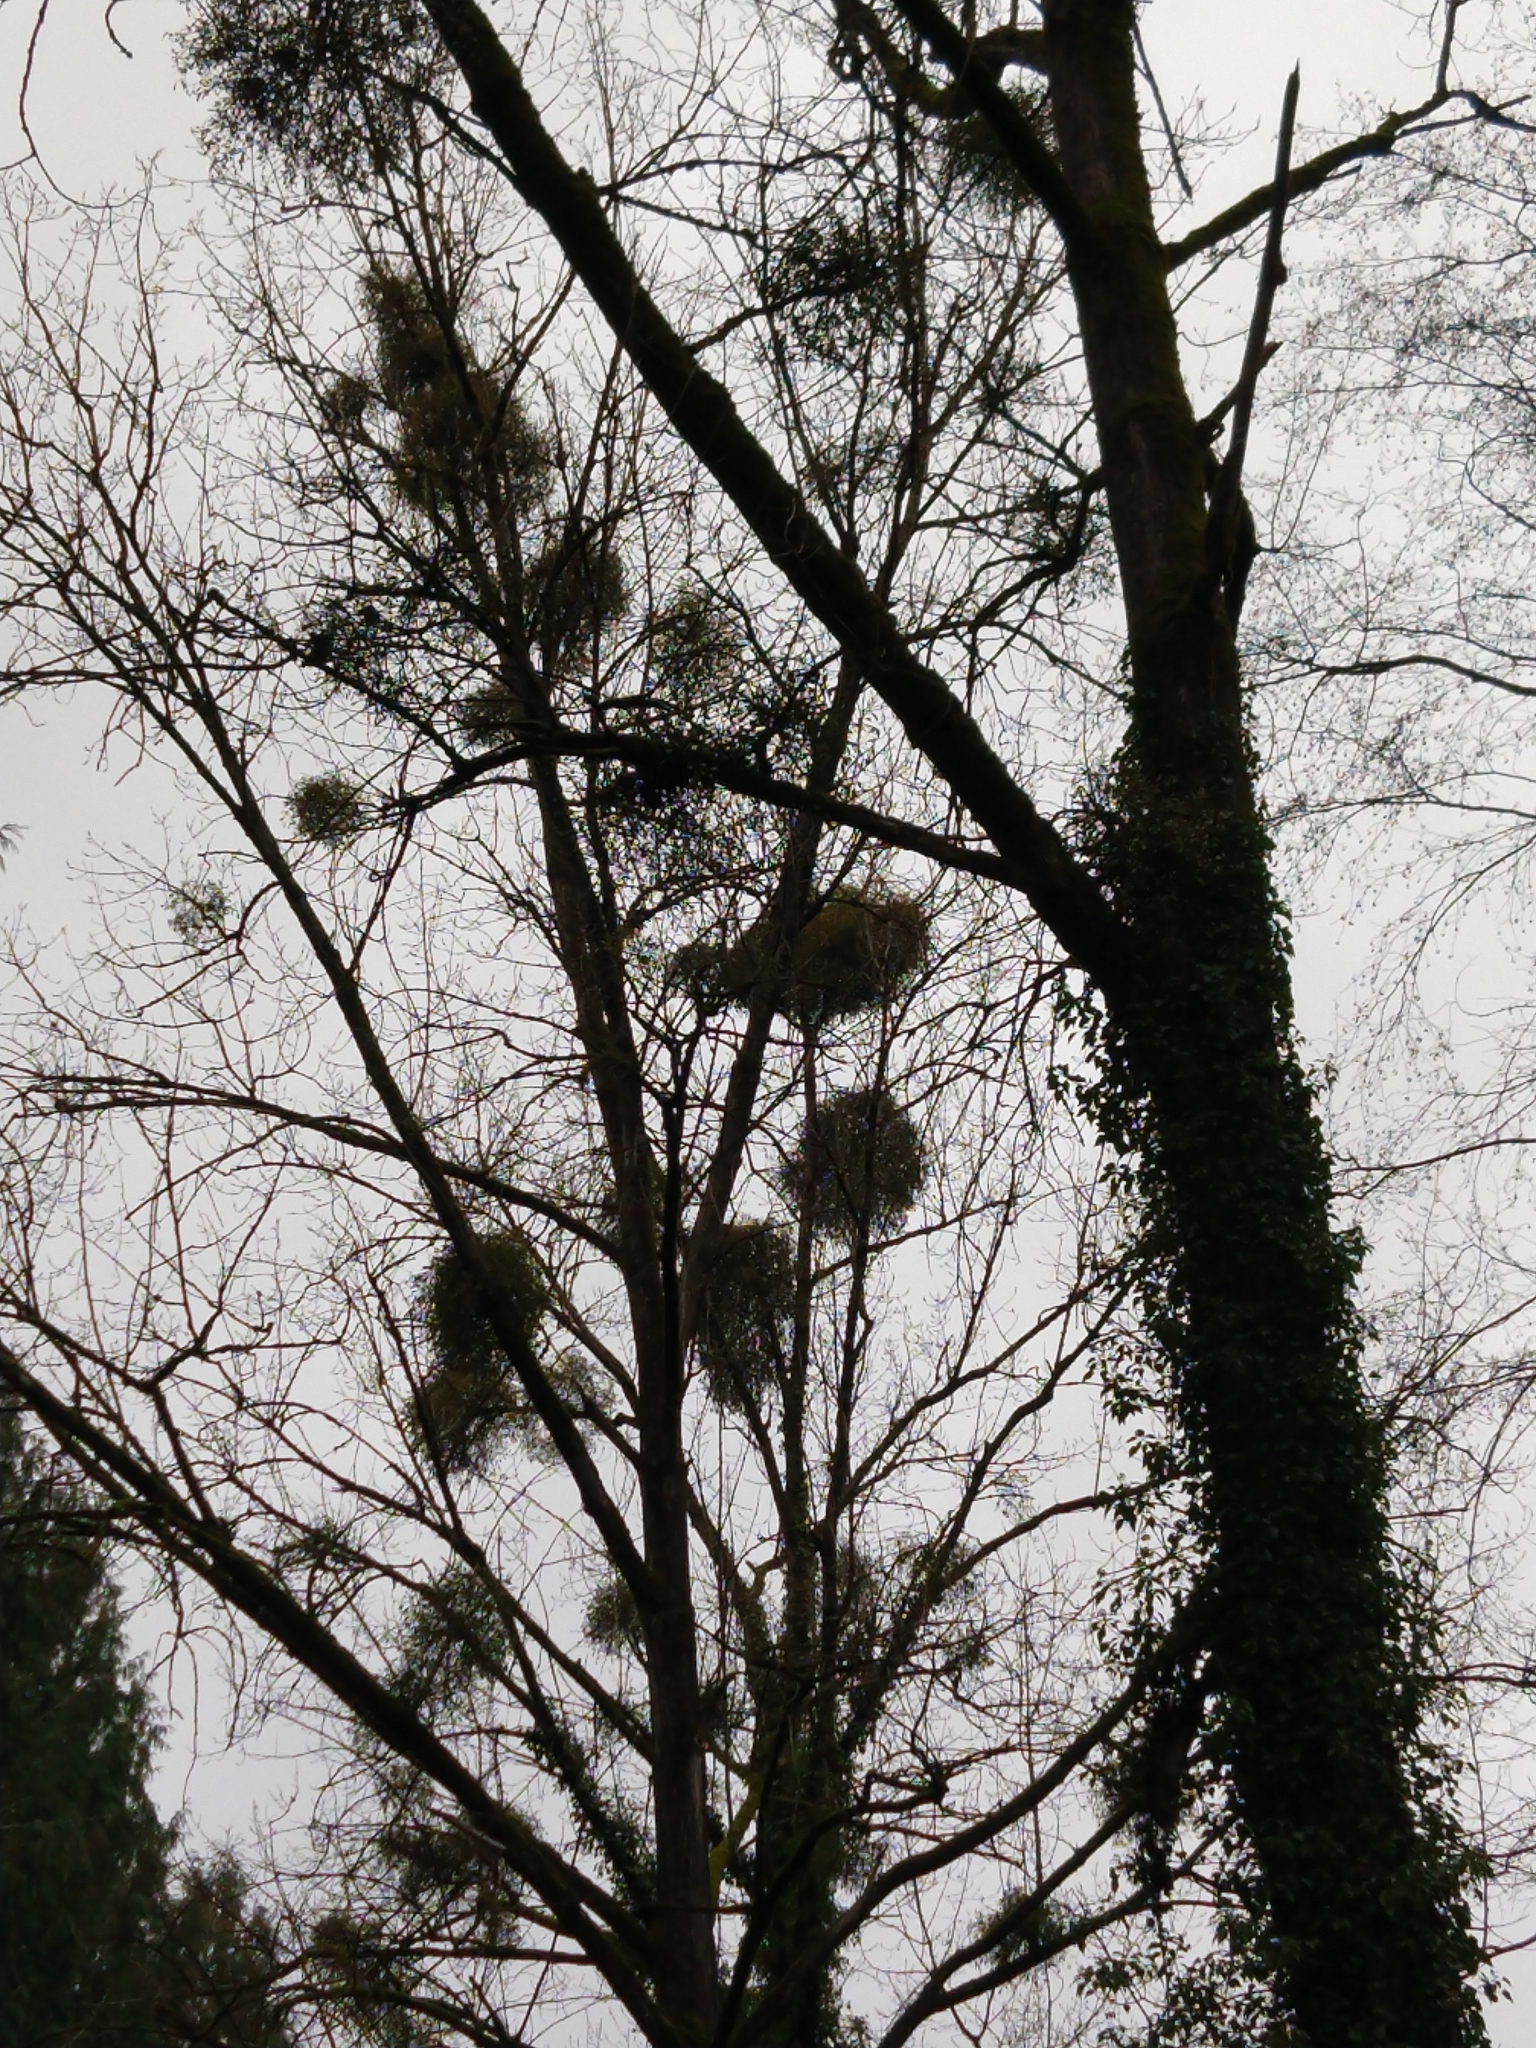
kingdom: Plantae
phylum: Tracheophyta
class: Magnoliopsida
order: Santalales
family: Viscaceae
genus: Viscum
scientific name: Viscum album
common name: Mistletoe
